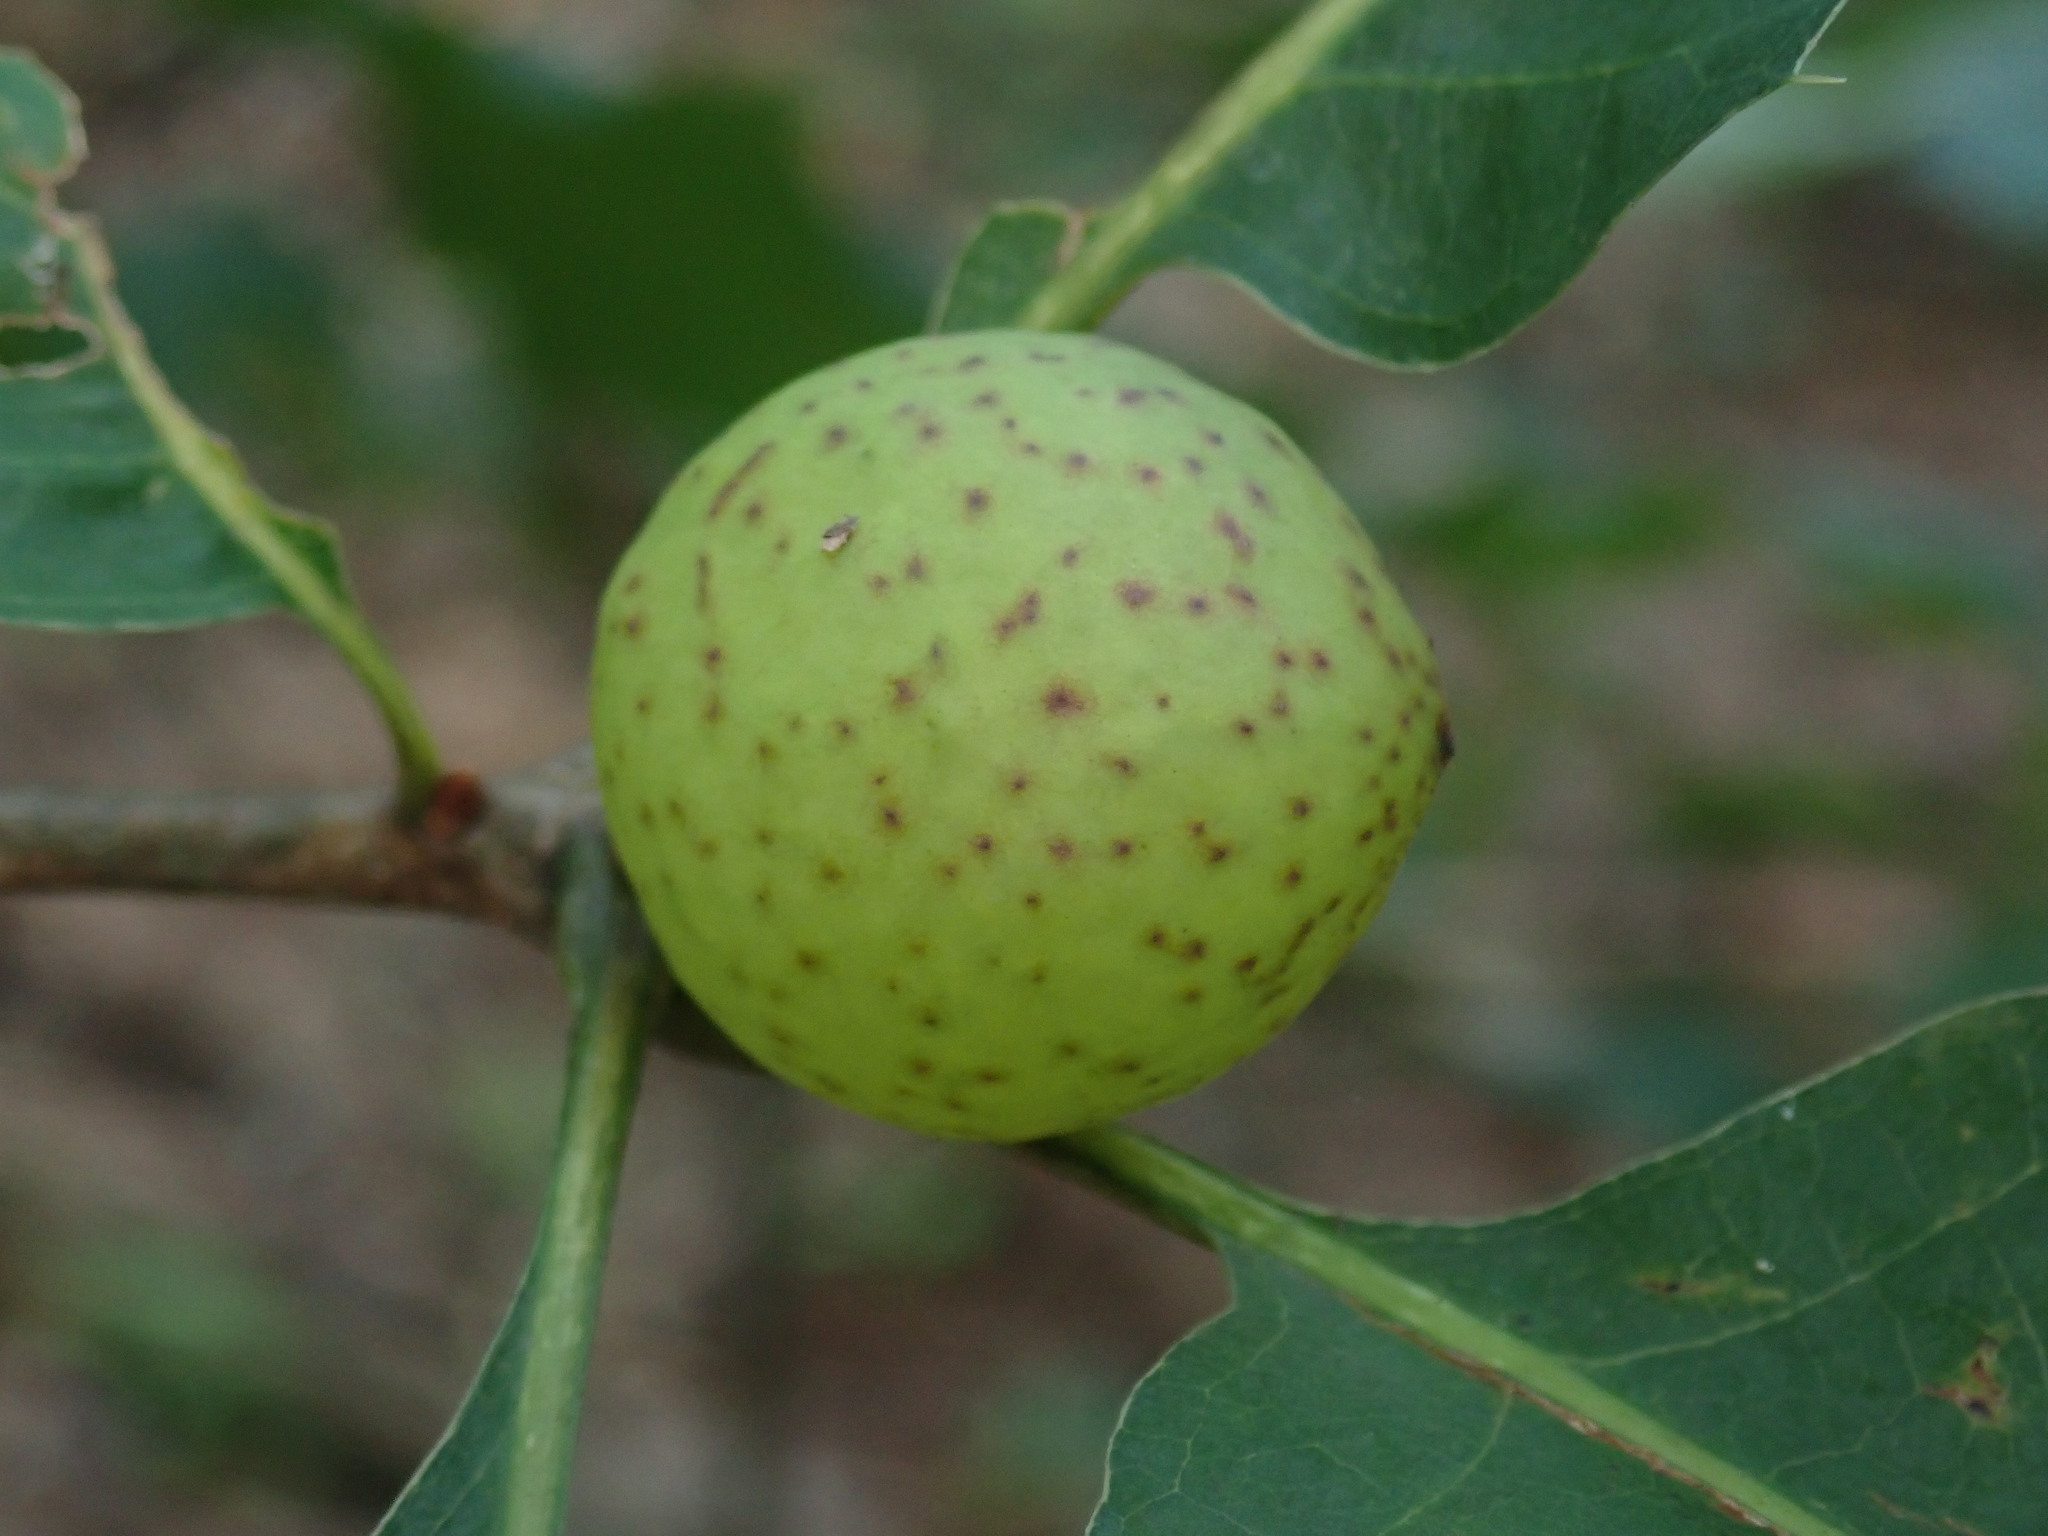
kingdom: Animalia
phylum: Arthropoda
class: Insecta
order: Hymenoptera
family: Cynipidae
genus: Amphibolips
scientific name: Amphibolips
